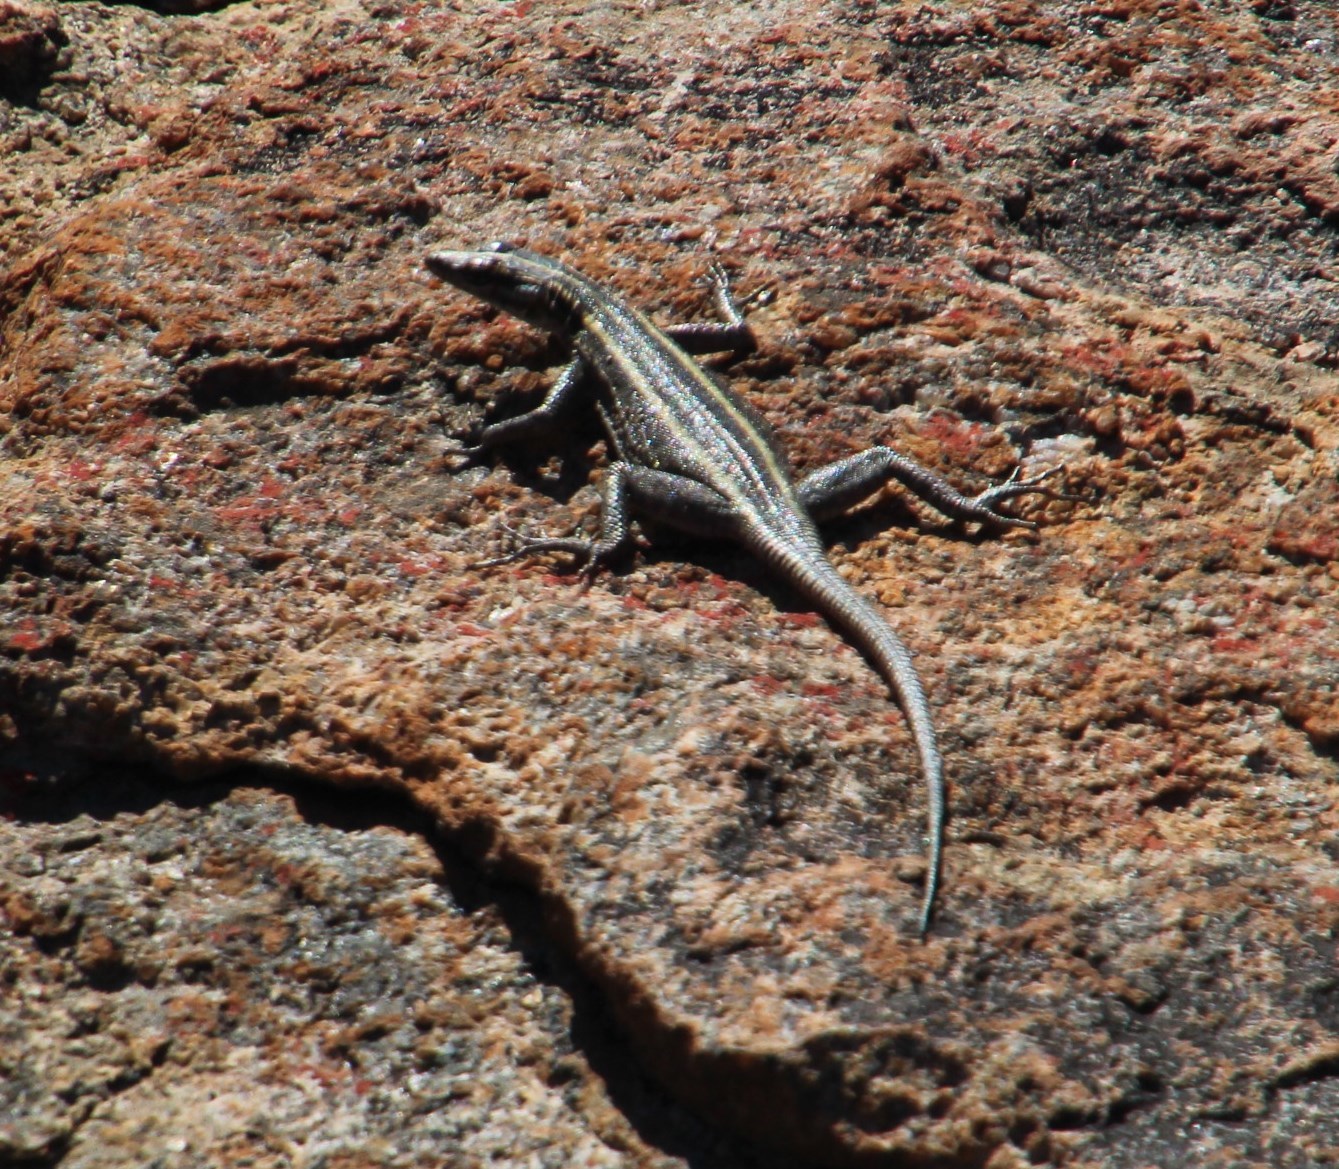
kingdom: Animalia
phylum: Chordata
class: Squamata
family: Cordylidae
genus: Platysaurus
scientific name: Platysaurus capensis
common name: Namaqua flat lizard
